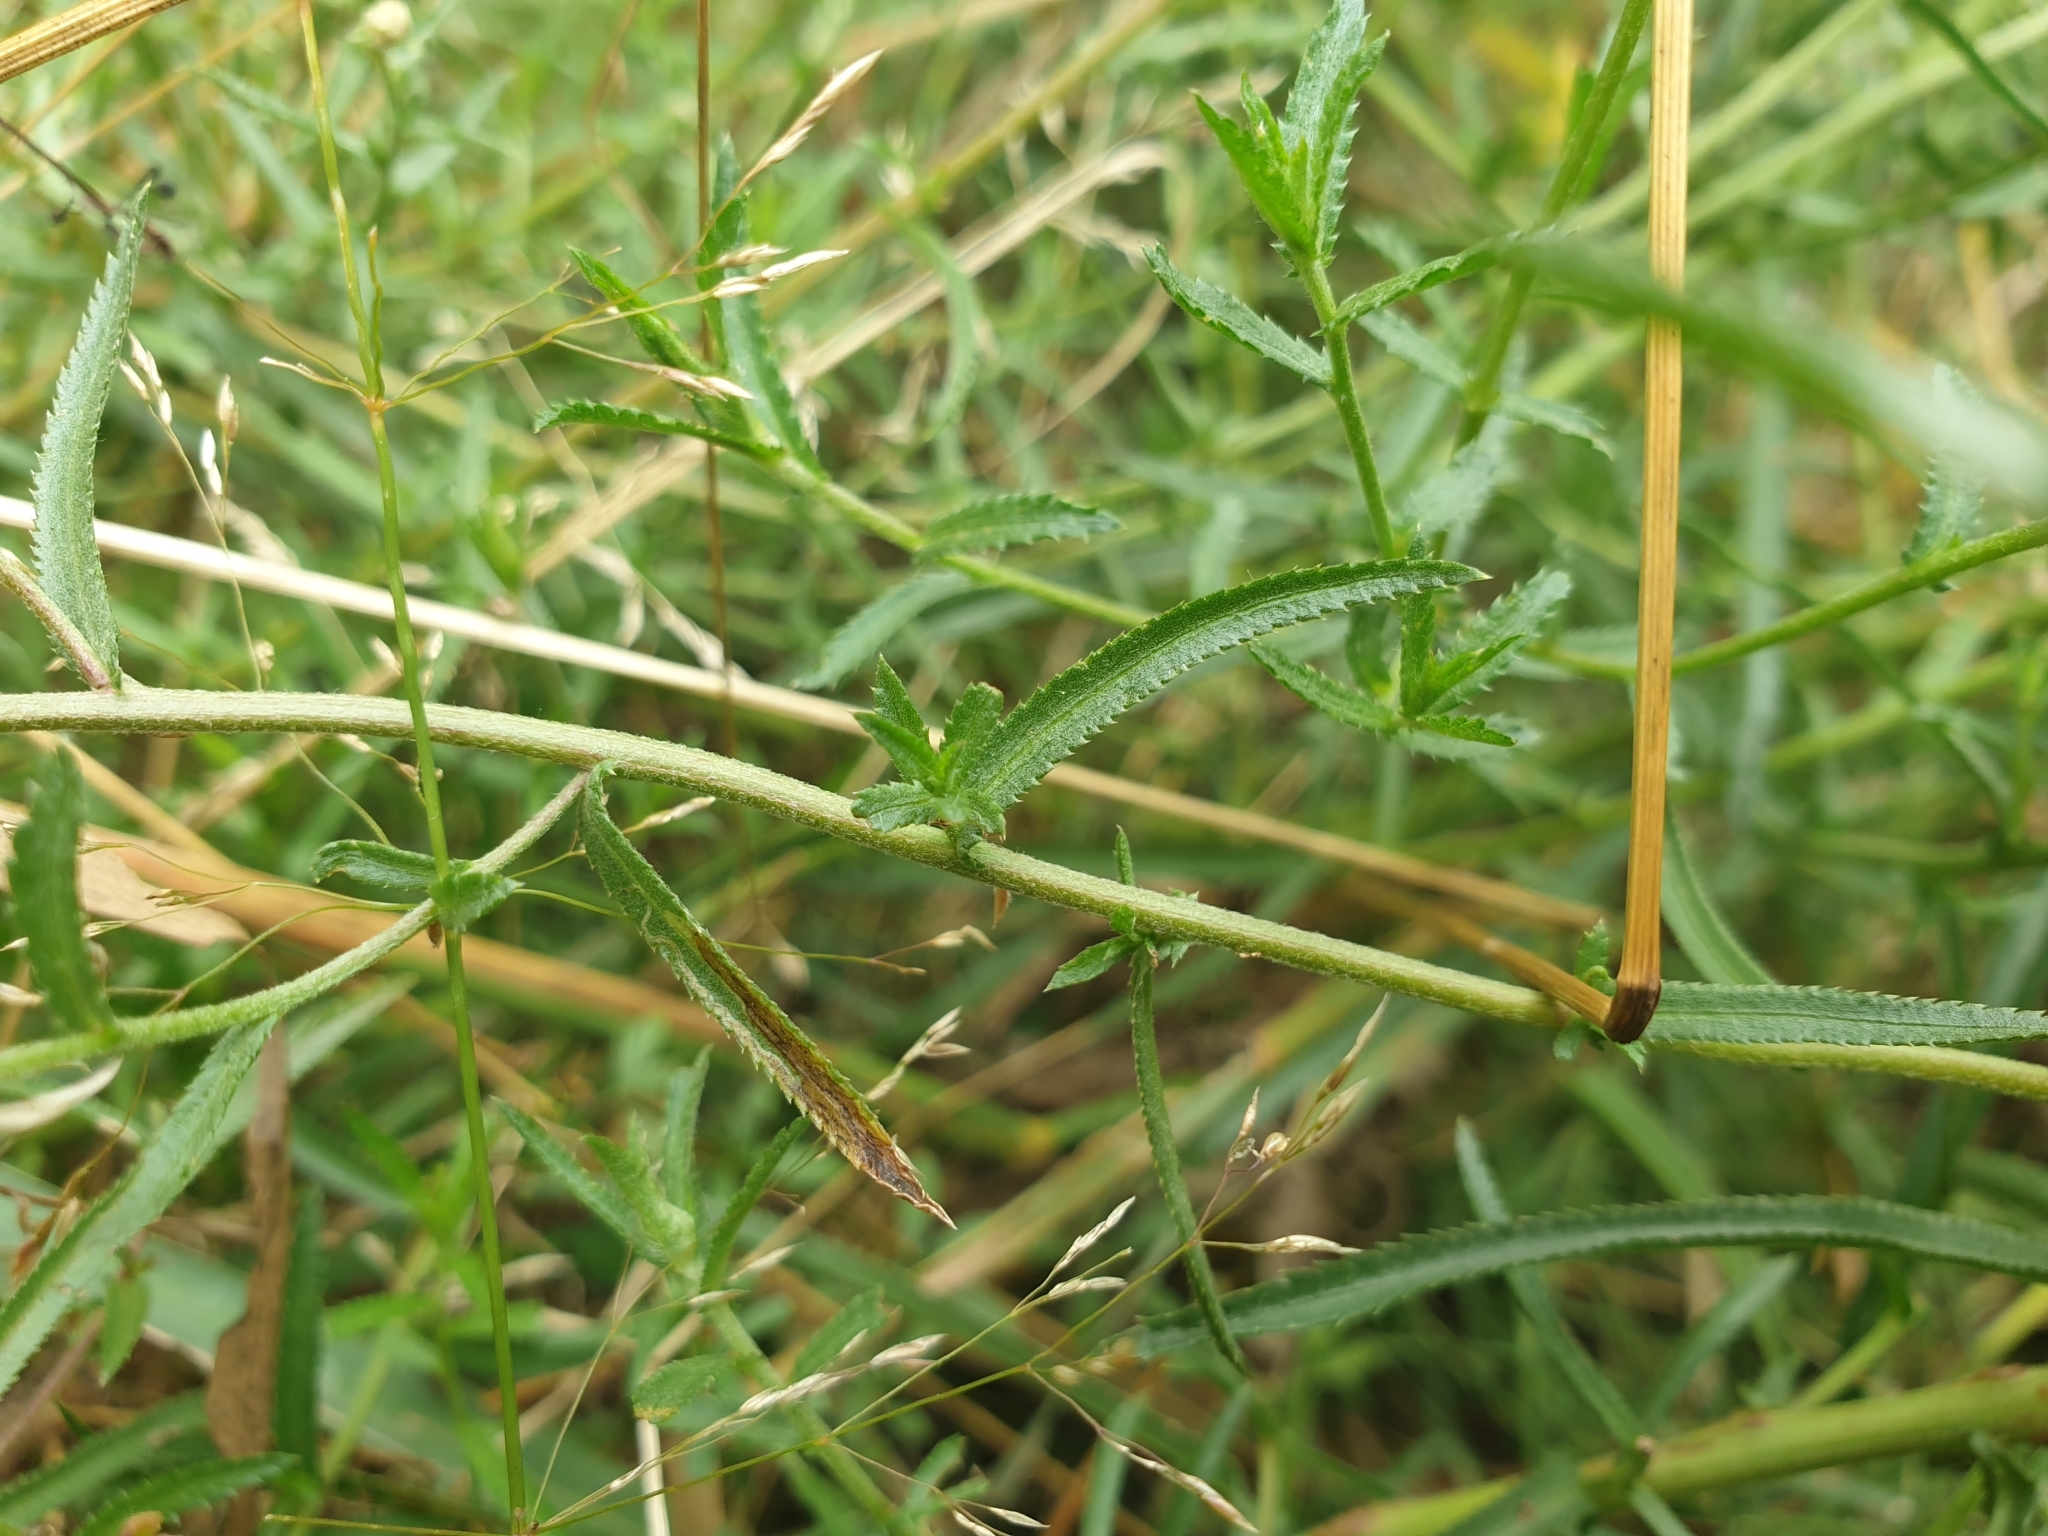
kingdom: Plantae
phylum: Tracheophyta
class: Magnoliopsida
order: Asterales
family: Asteraceae
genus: Achillea
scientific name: Achillea ptarmica
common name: Sneezeweed
